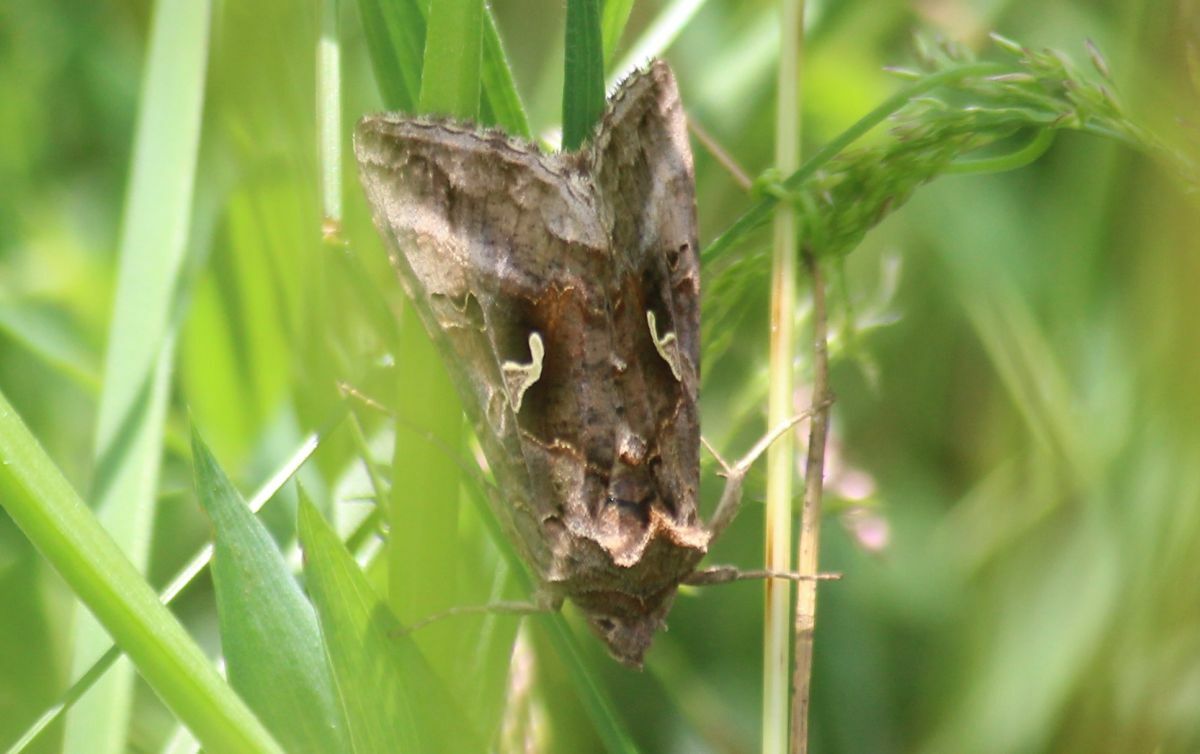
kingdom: Animalia
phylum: Arthropoda
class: Insecta
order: Lepidoptera
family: Noctuidae
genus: Autographa
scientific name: Autographa gamma
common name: Silver y
